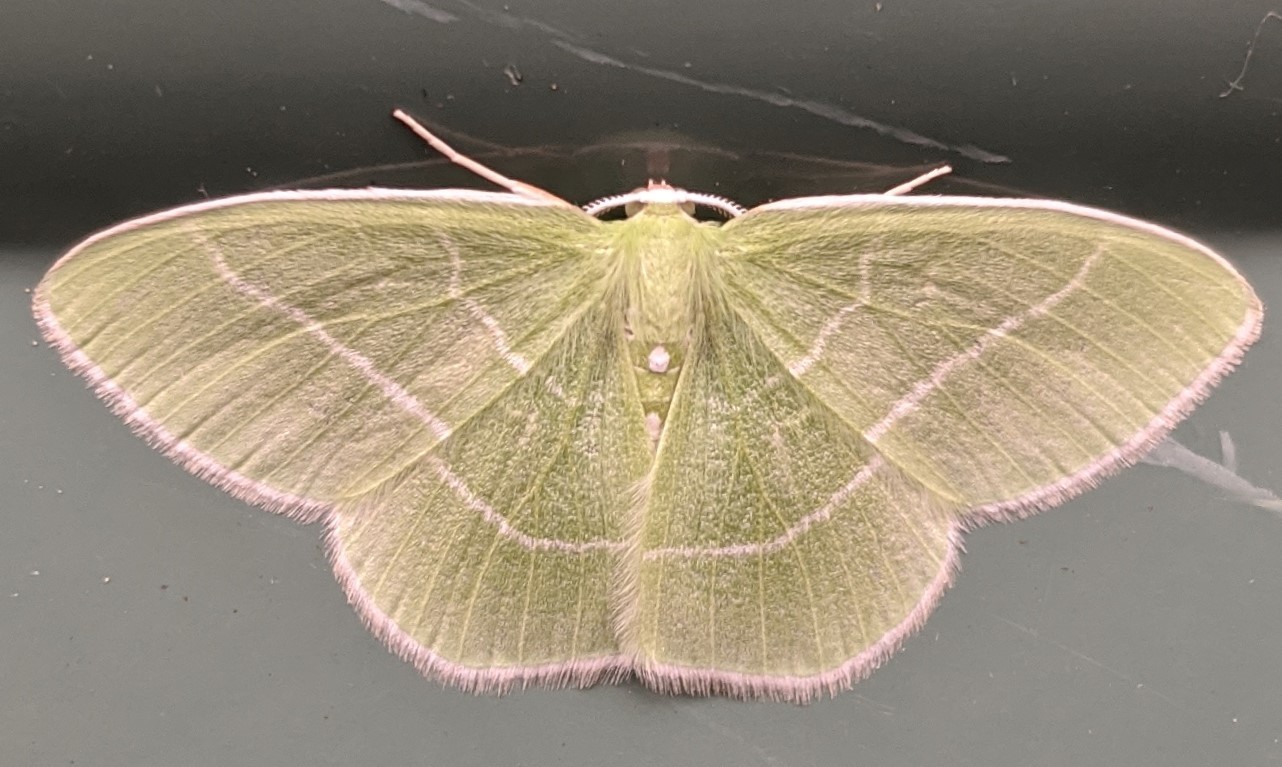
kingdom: Animalia
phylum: Arthropoda
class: Insecta
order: Lepidoptera
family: Geometridae
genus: Nemoria
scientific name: Nemoria mimosaria
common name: White-fringed emerald
